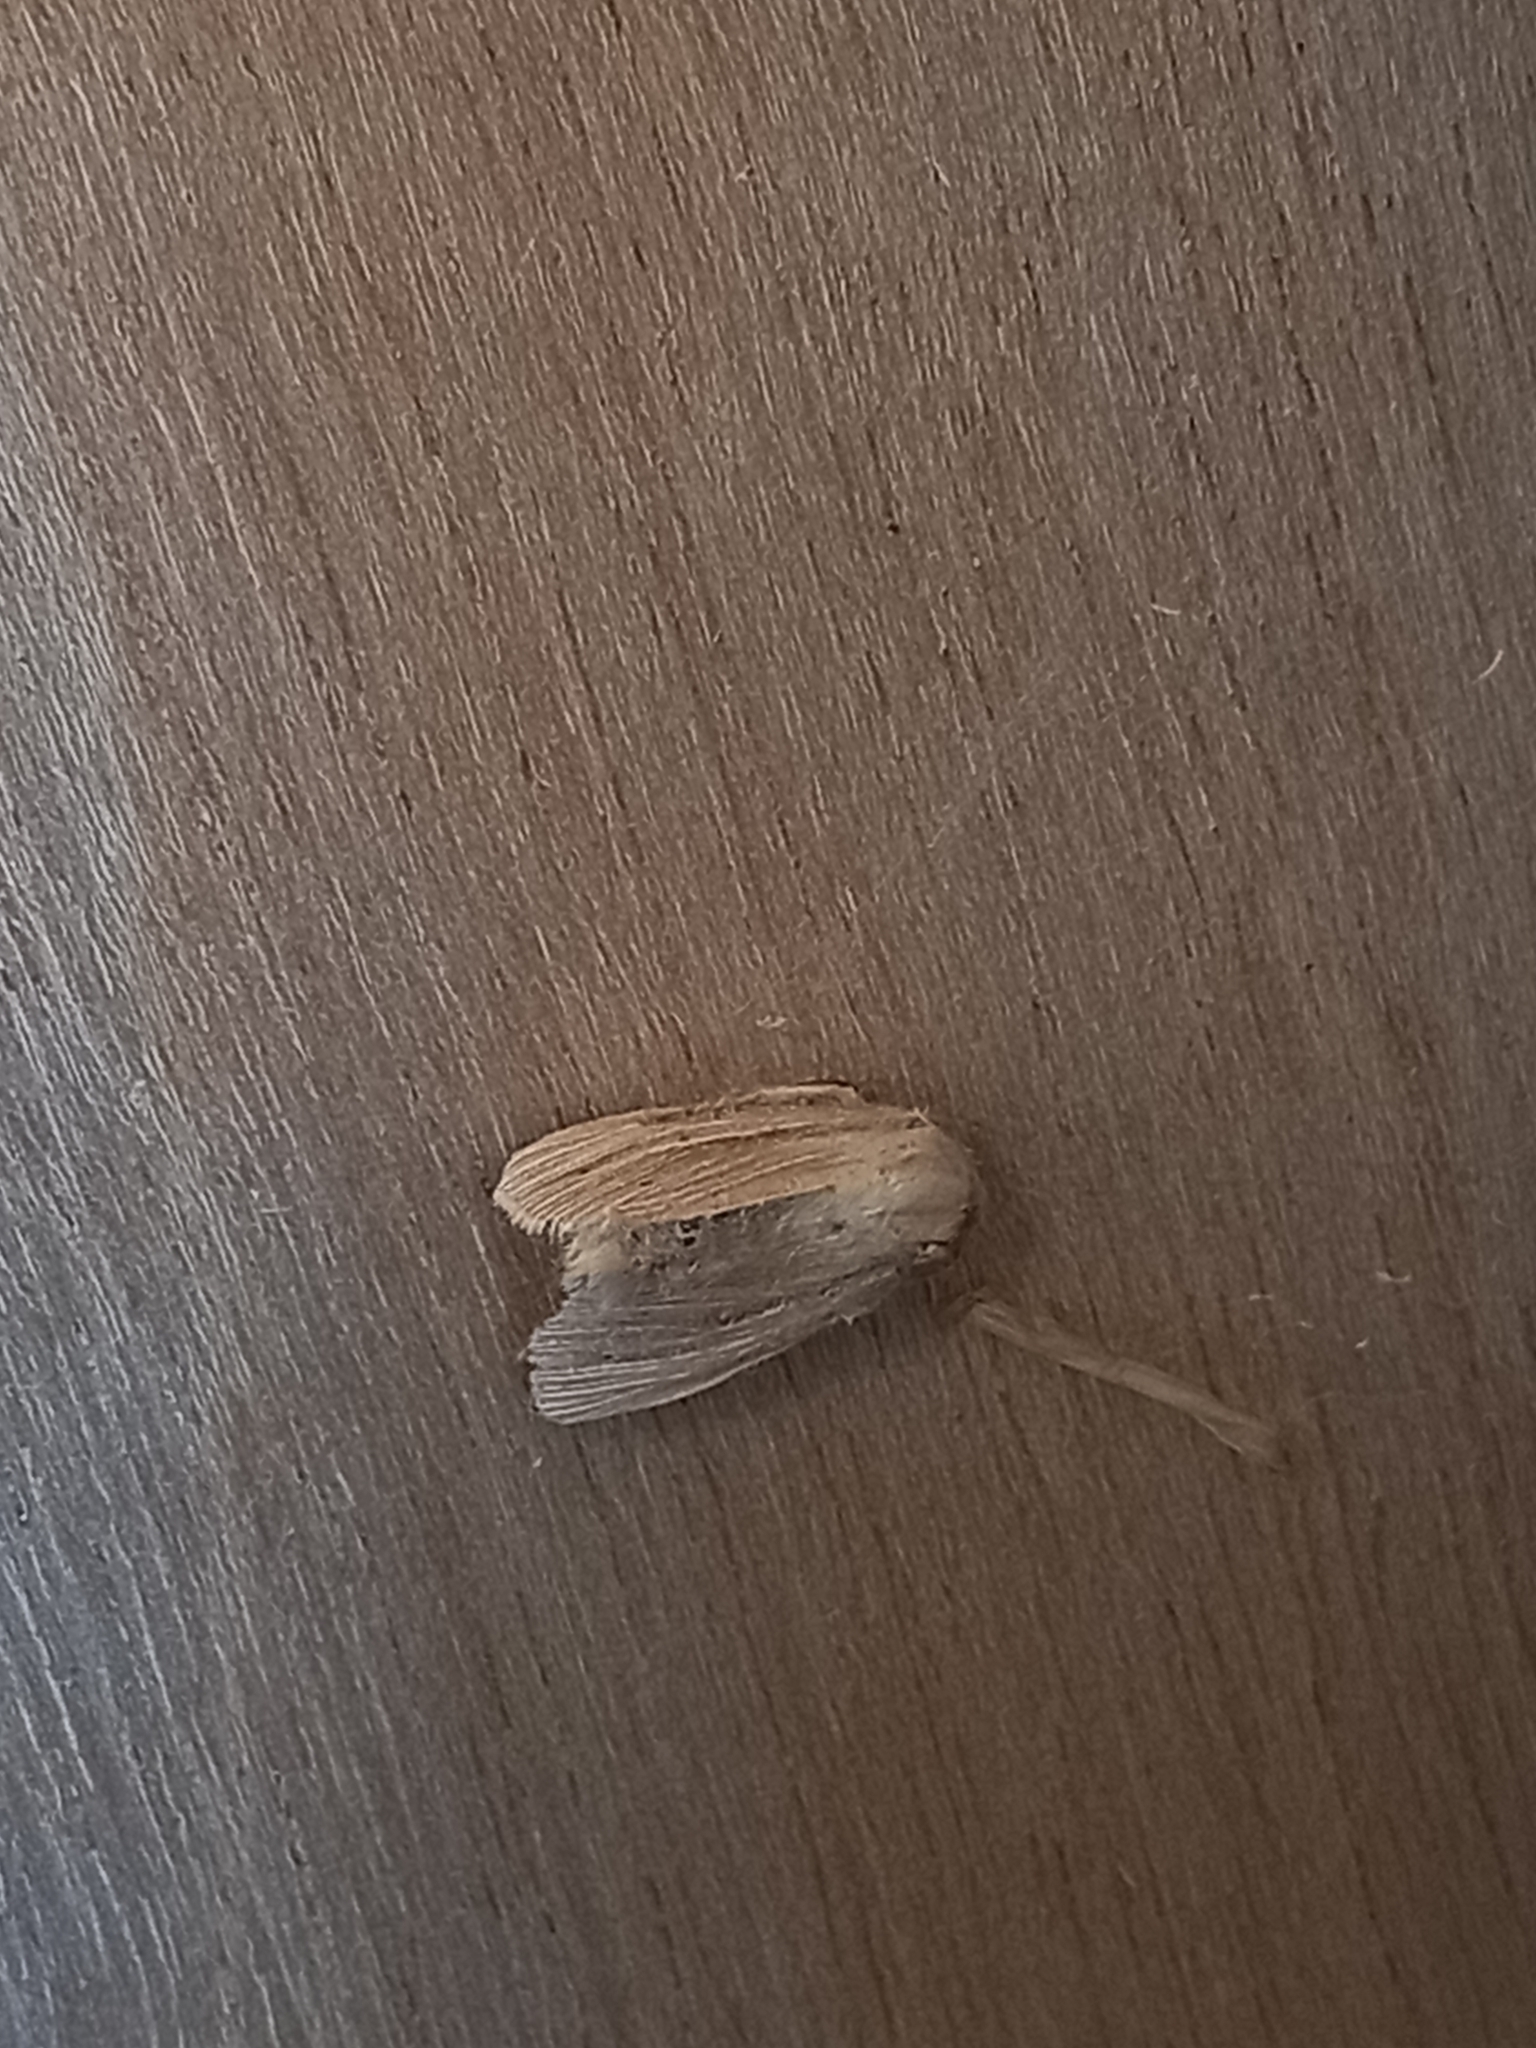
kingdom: Animalia
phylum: Arthropoda
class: Insecta
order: Lepidoptera
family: Noctuidae
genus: Mythimna
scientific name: Mythimna impura
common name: Smoky wainscot
